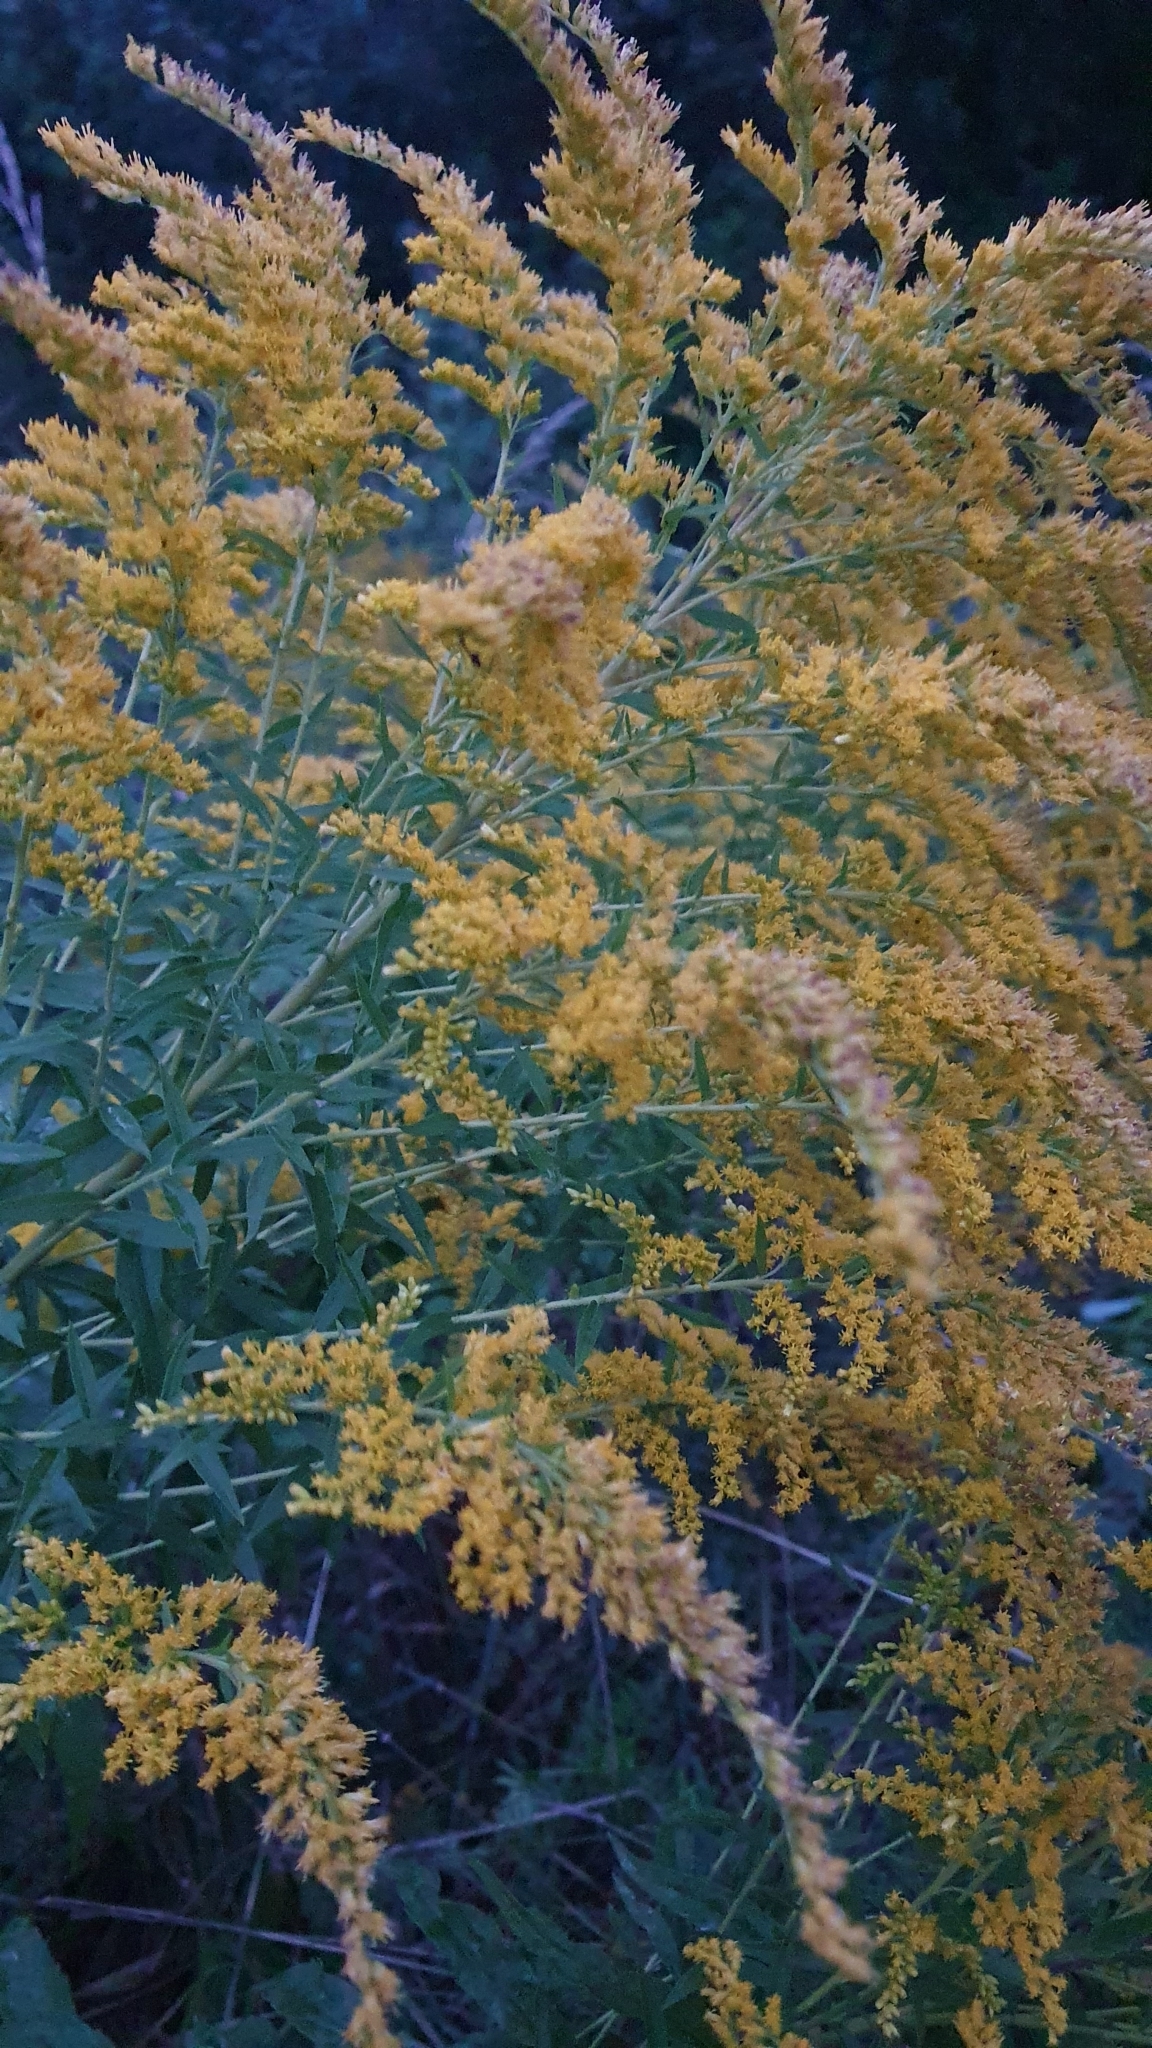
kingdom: Plantae
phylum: Tracheophyta
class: Magnoliopsida
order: Asterales
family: Asteraceae
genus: Solidago
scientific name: Solidago canadensis
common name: Canada goldenrod
